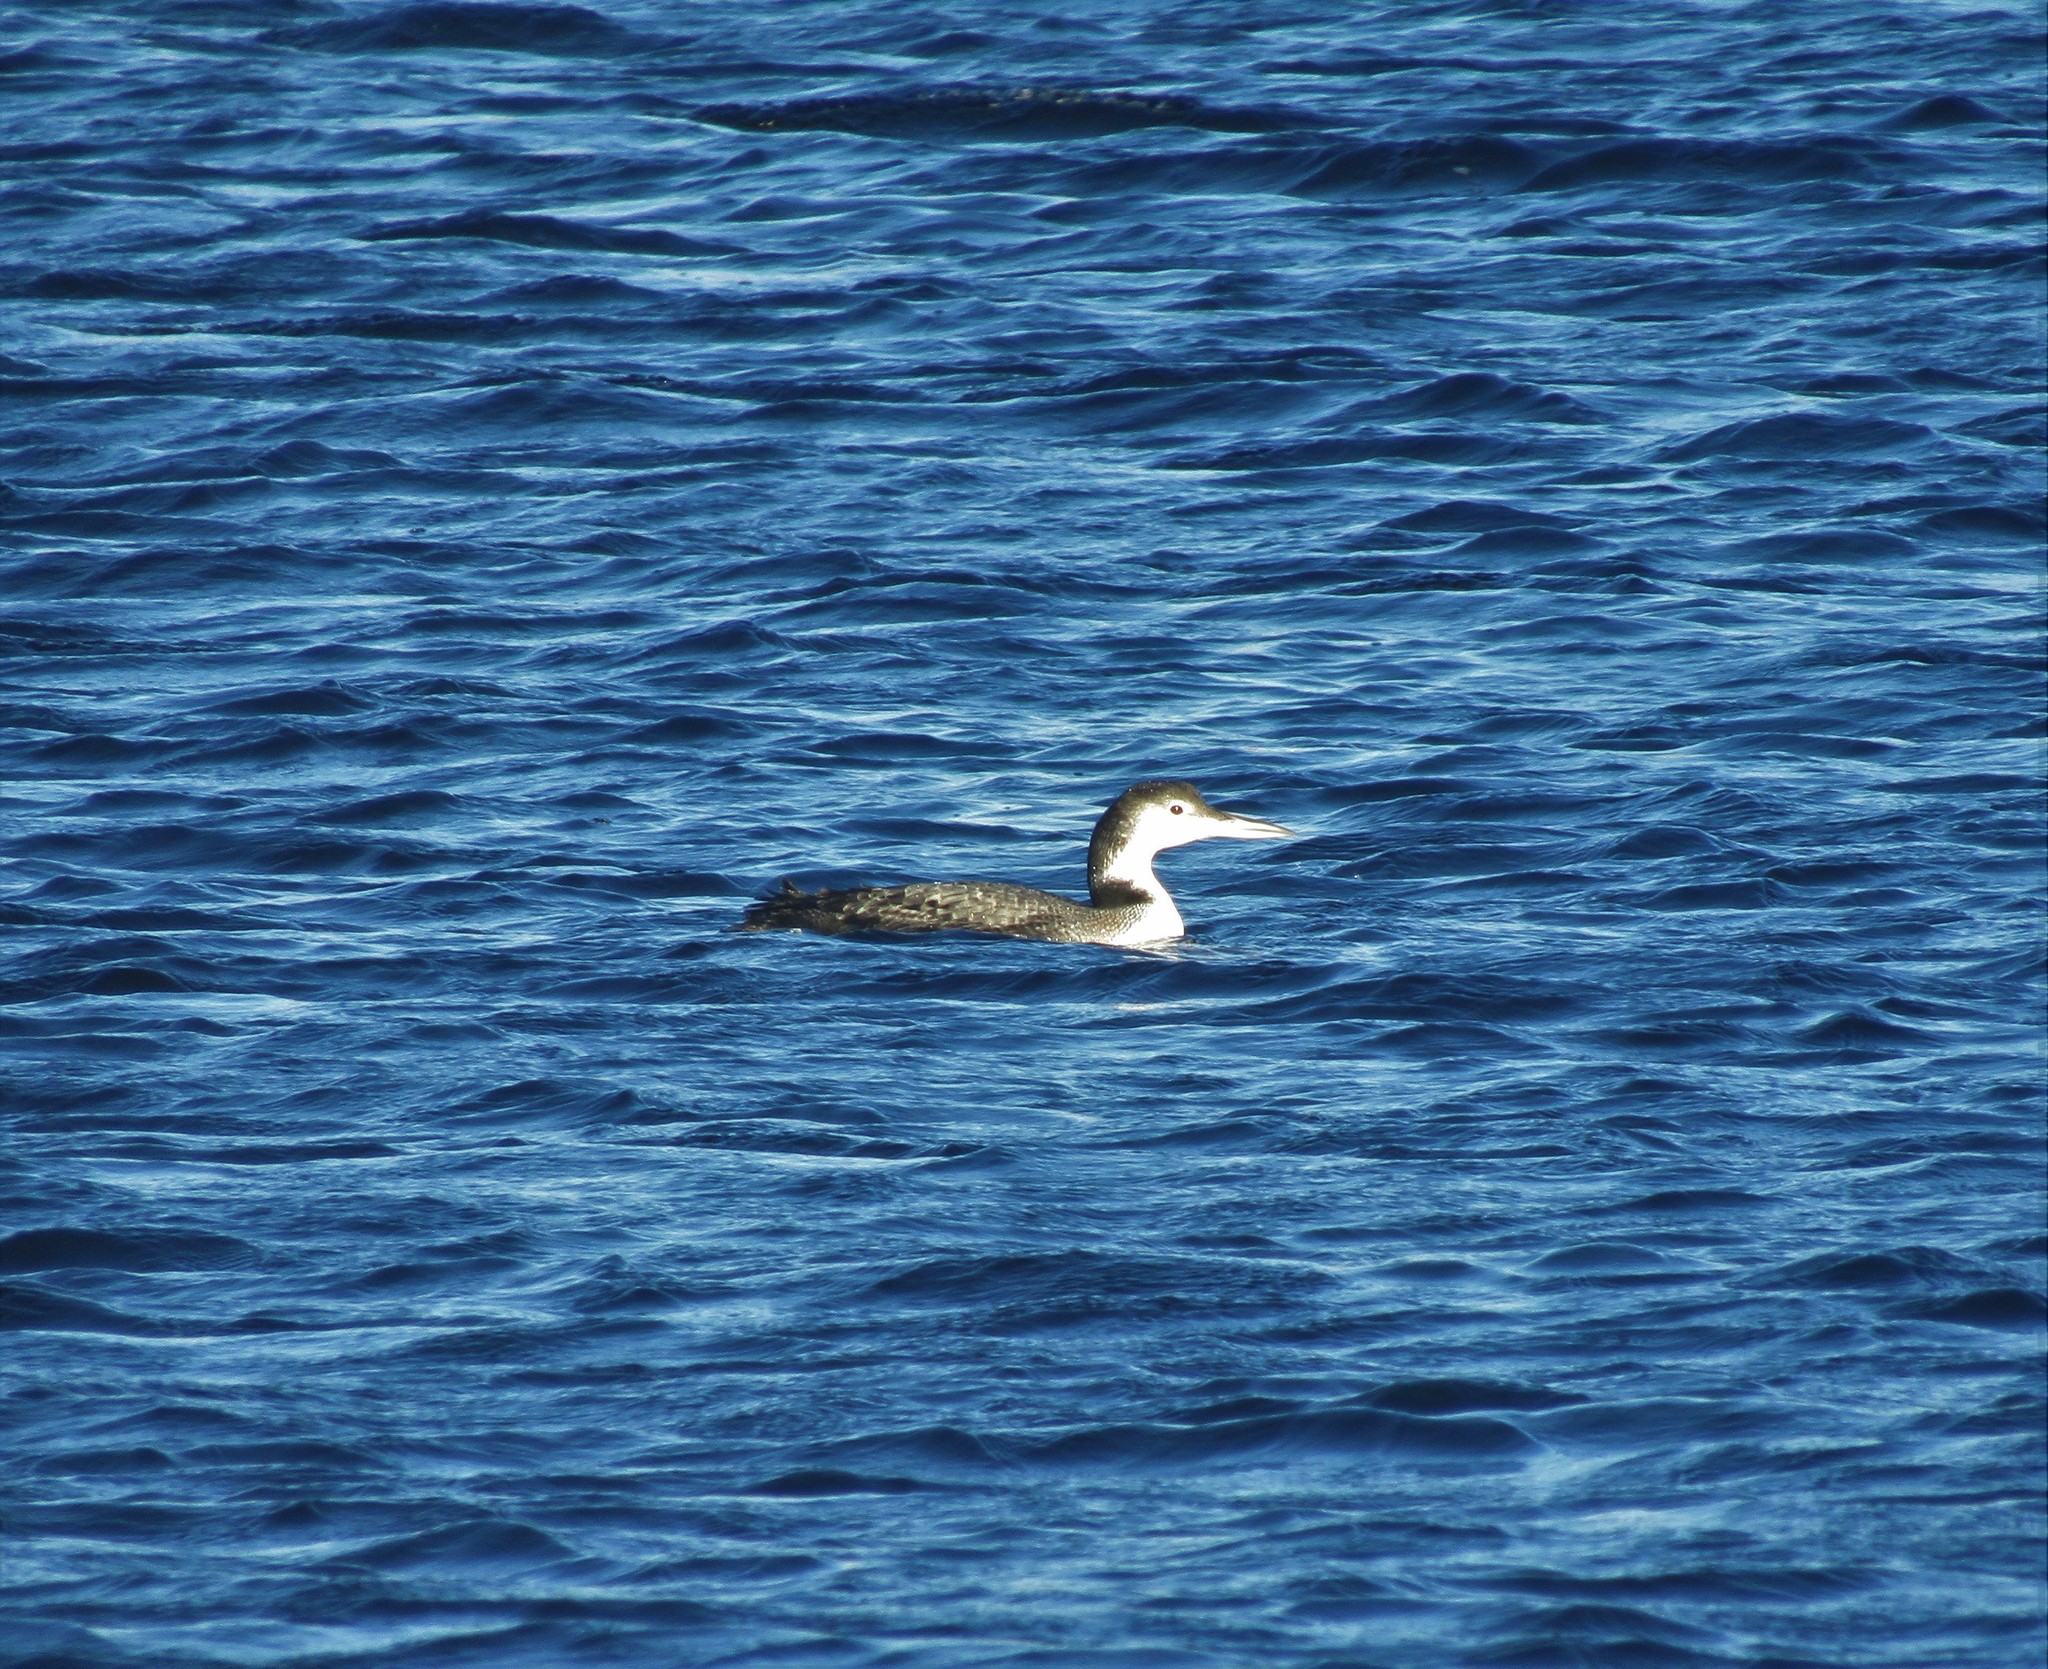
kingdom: Animalia
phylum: Chordata
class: Aves
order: Gaviiformes
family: Gaviidae
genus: Gavia
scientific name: Gavia immer
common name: Common loon
